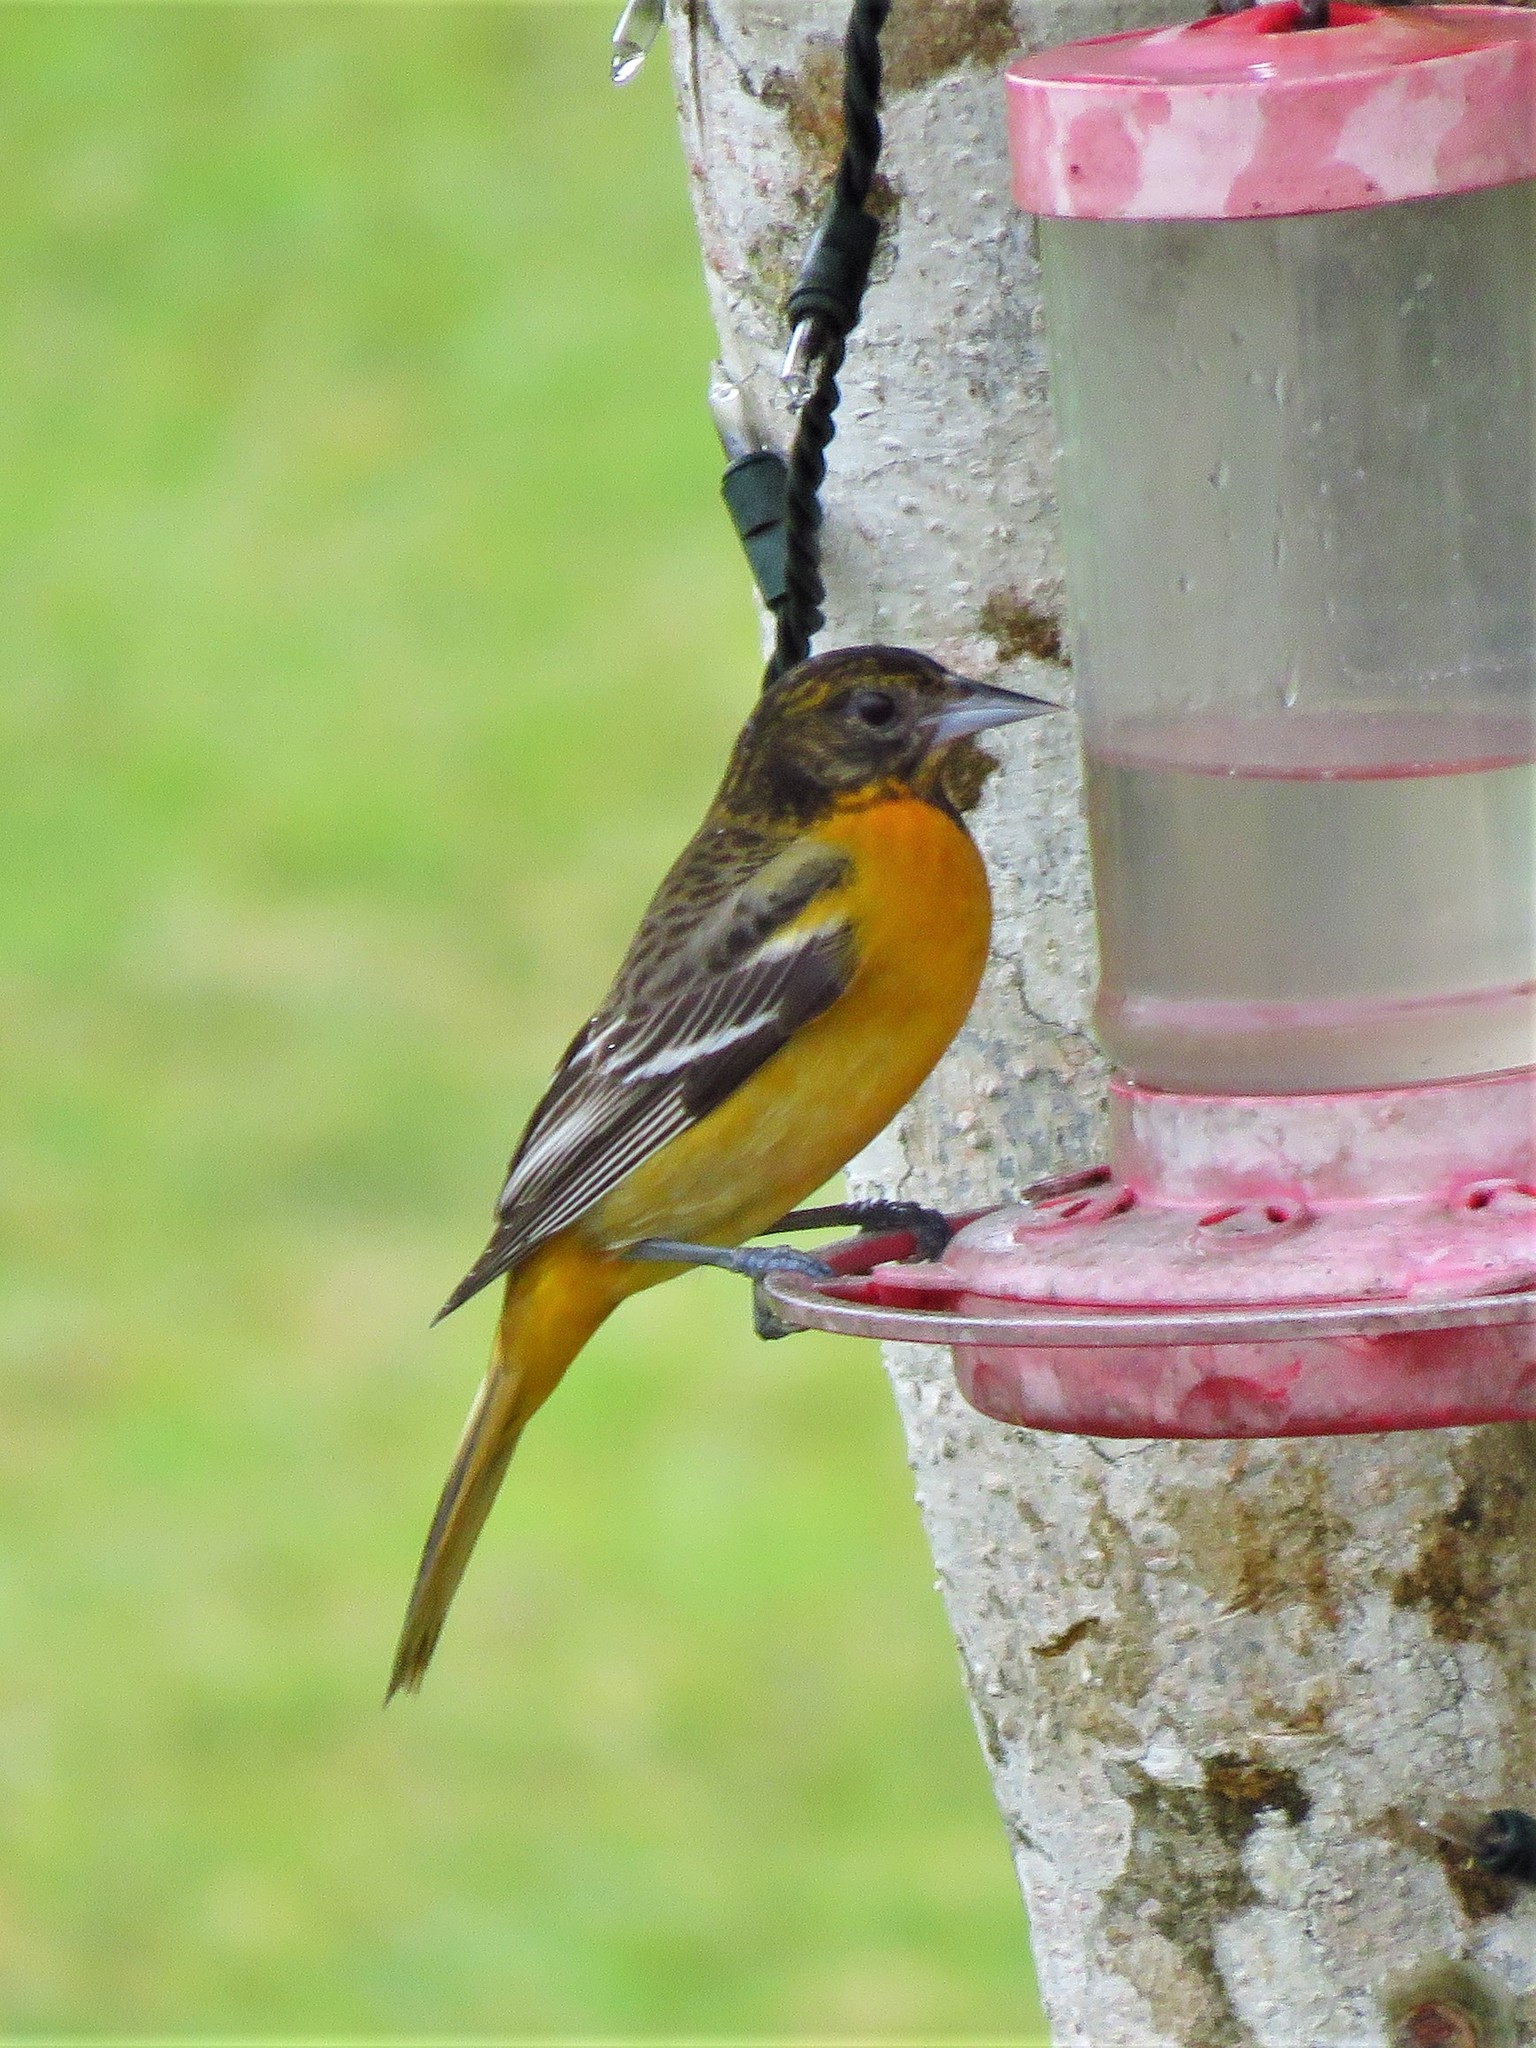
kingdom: Animalia
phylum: Chordata
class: Aves
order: Passeriformes
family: Icteridae
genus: Icterus
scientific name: Icterus galbula
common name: Baltimore oriole
